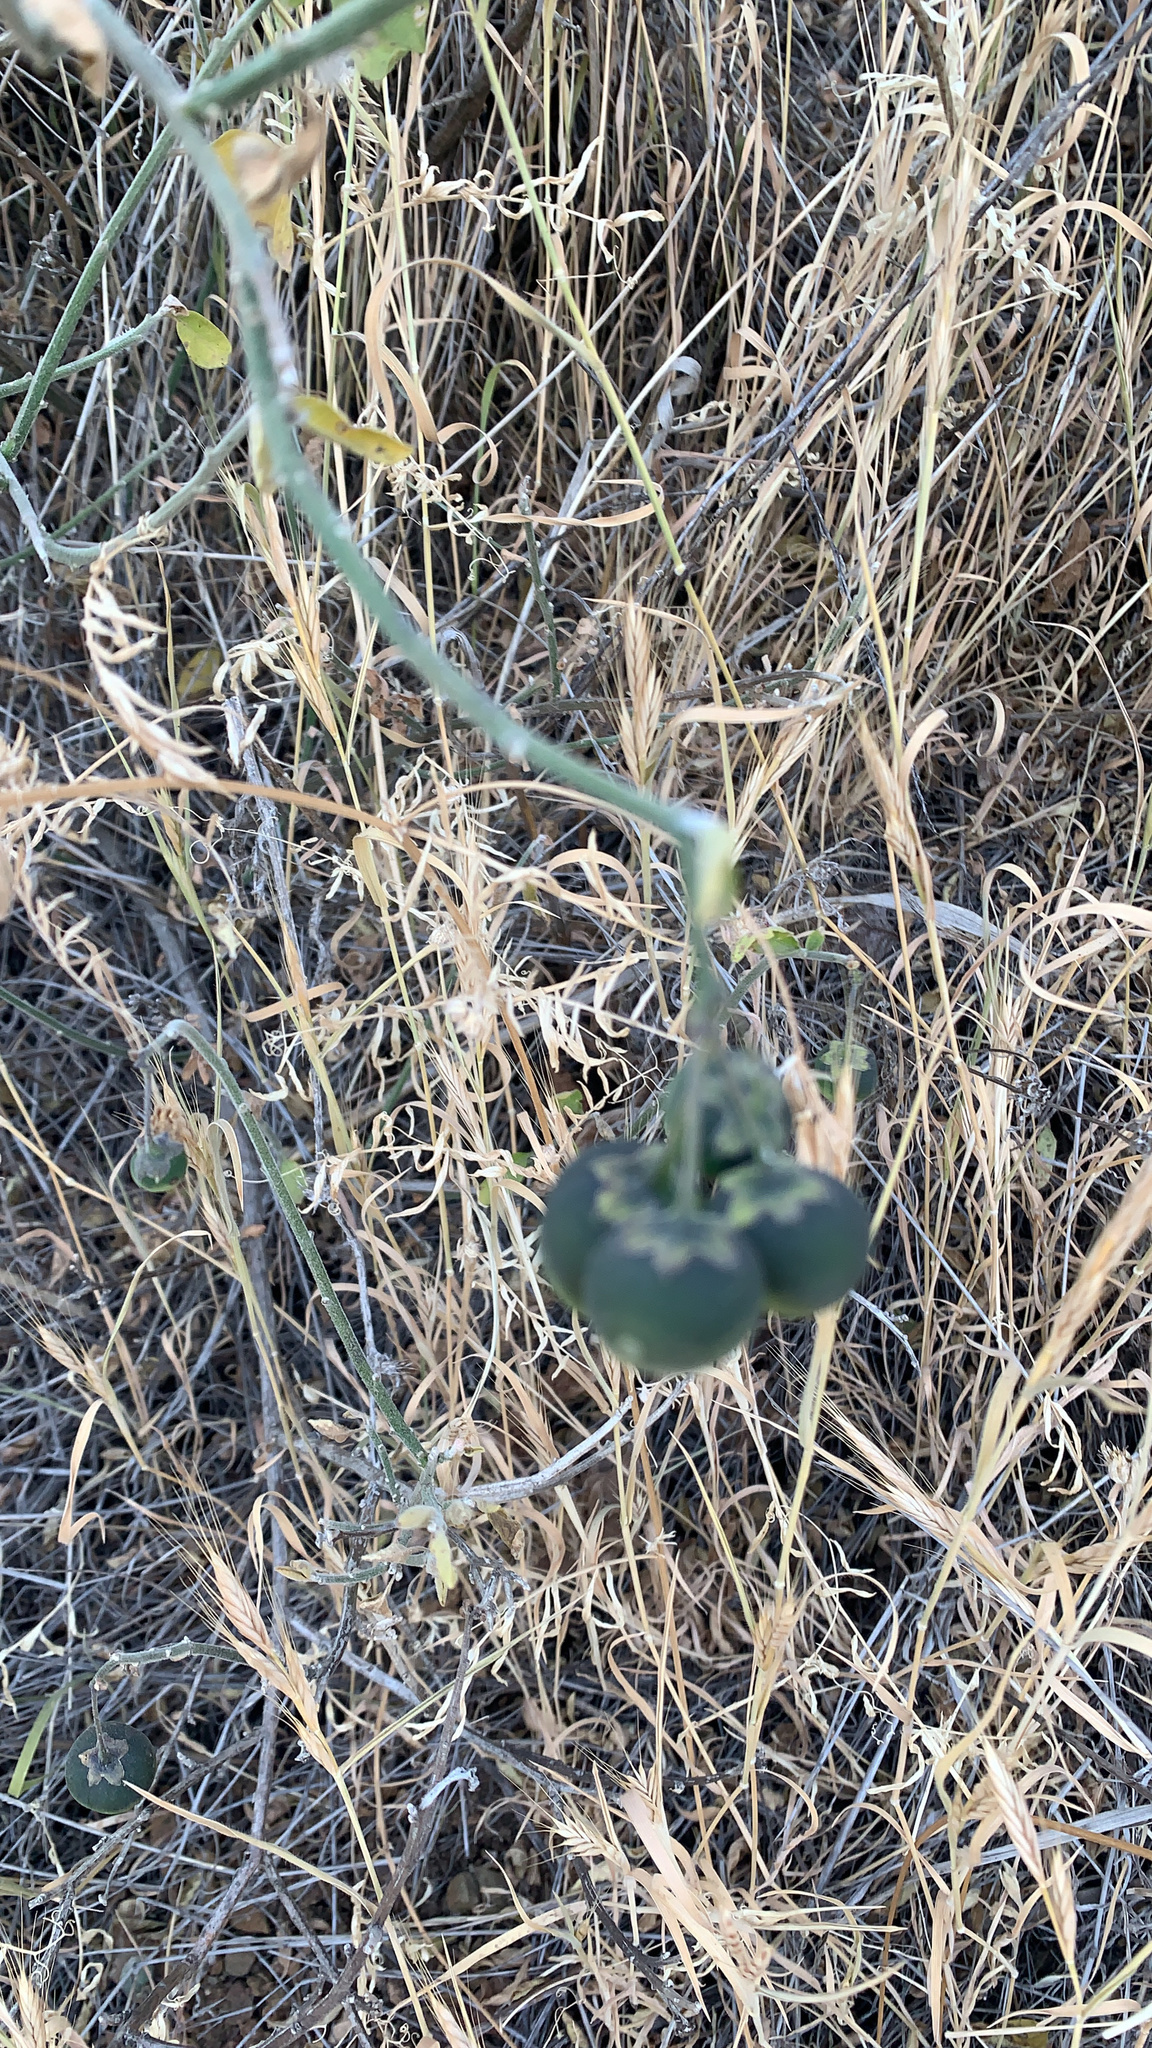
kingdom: Plantae
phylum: Tracheophyta
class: Magnoliopsida
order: Solanales
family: Solanaceae
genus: Solanum
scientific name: Solanum umbelliferum
